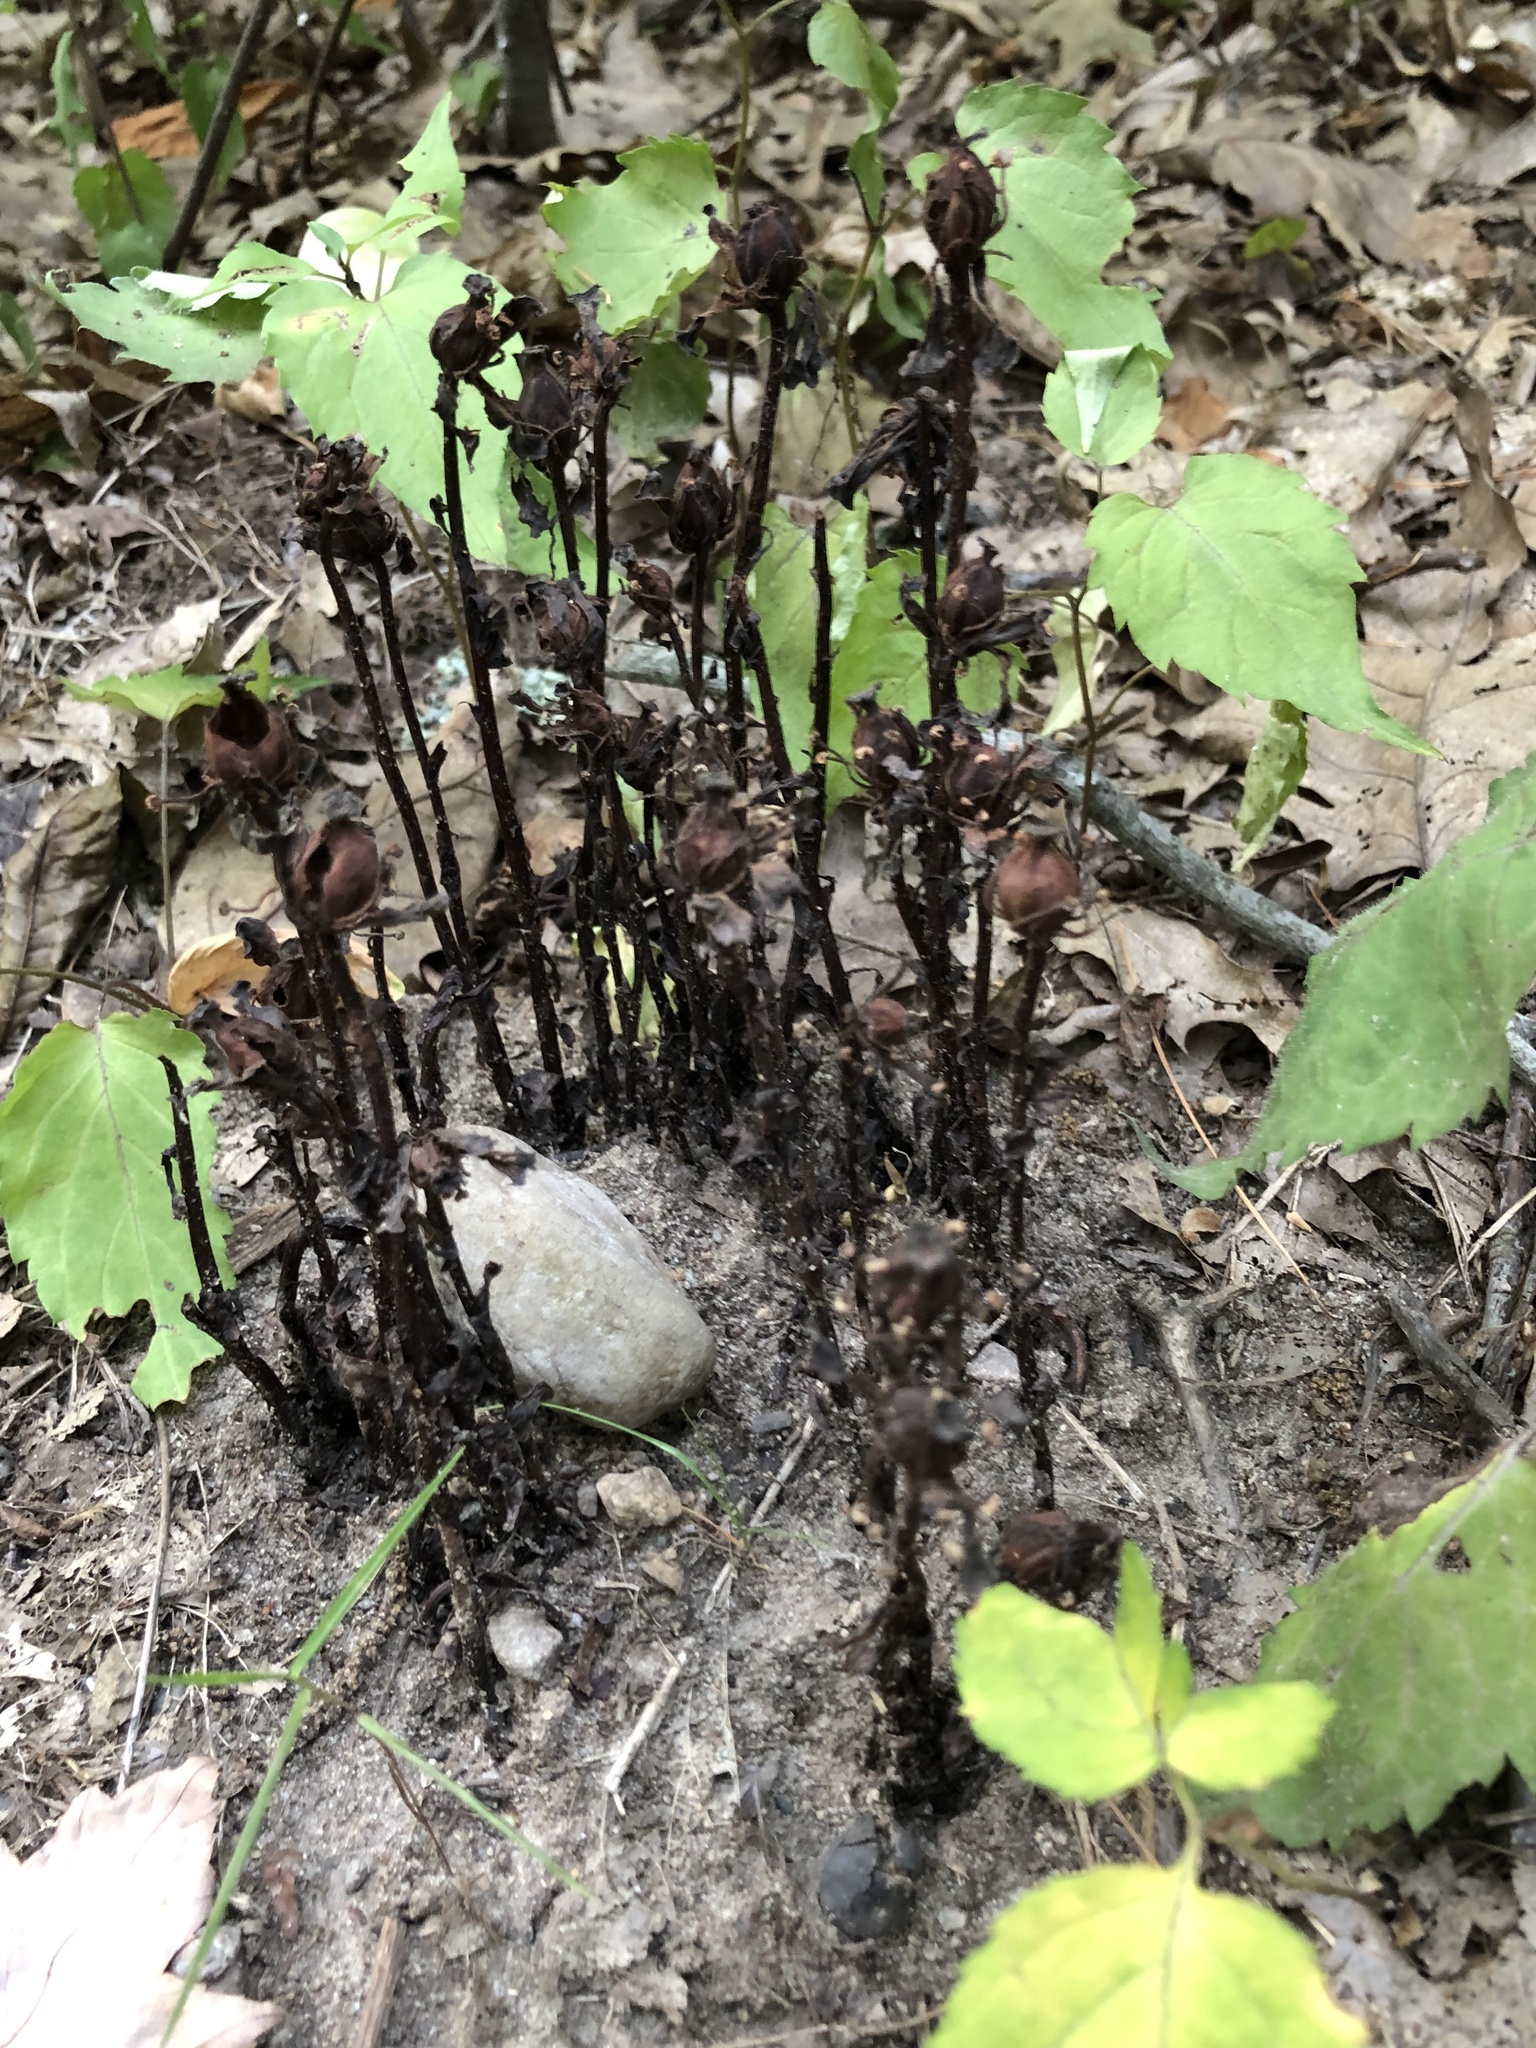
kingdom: Plantae
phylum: Tracheophyta
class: Magnoliopsida
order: Ericales
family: Ericaceae
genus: Monotropa
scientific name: Monotropa uniflora
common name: Convulsion root
